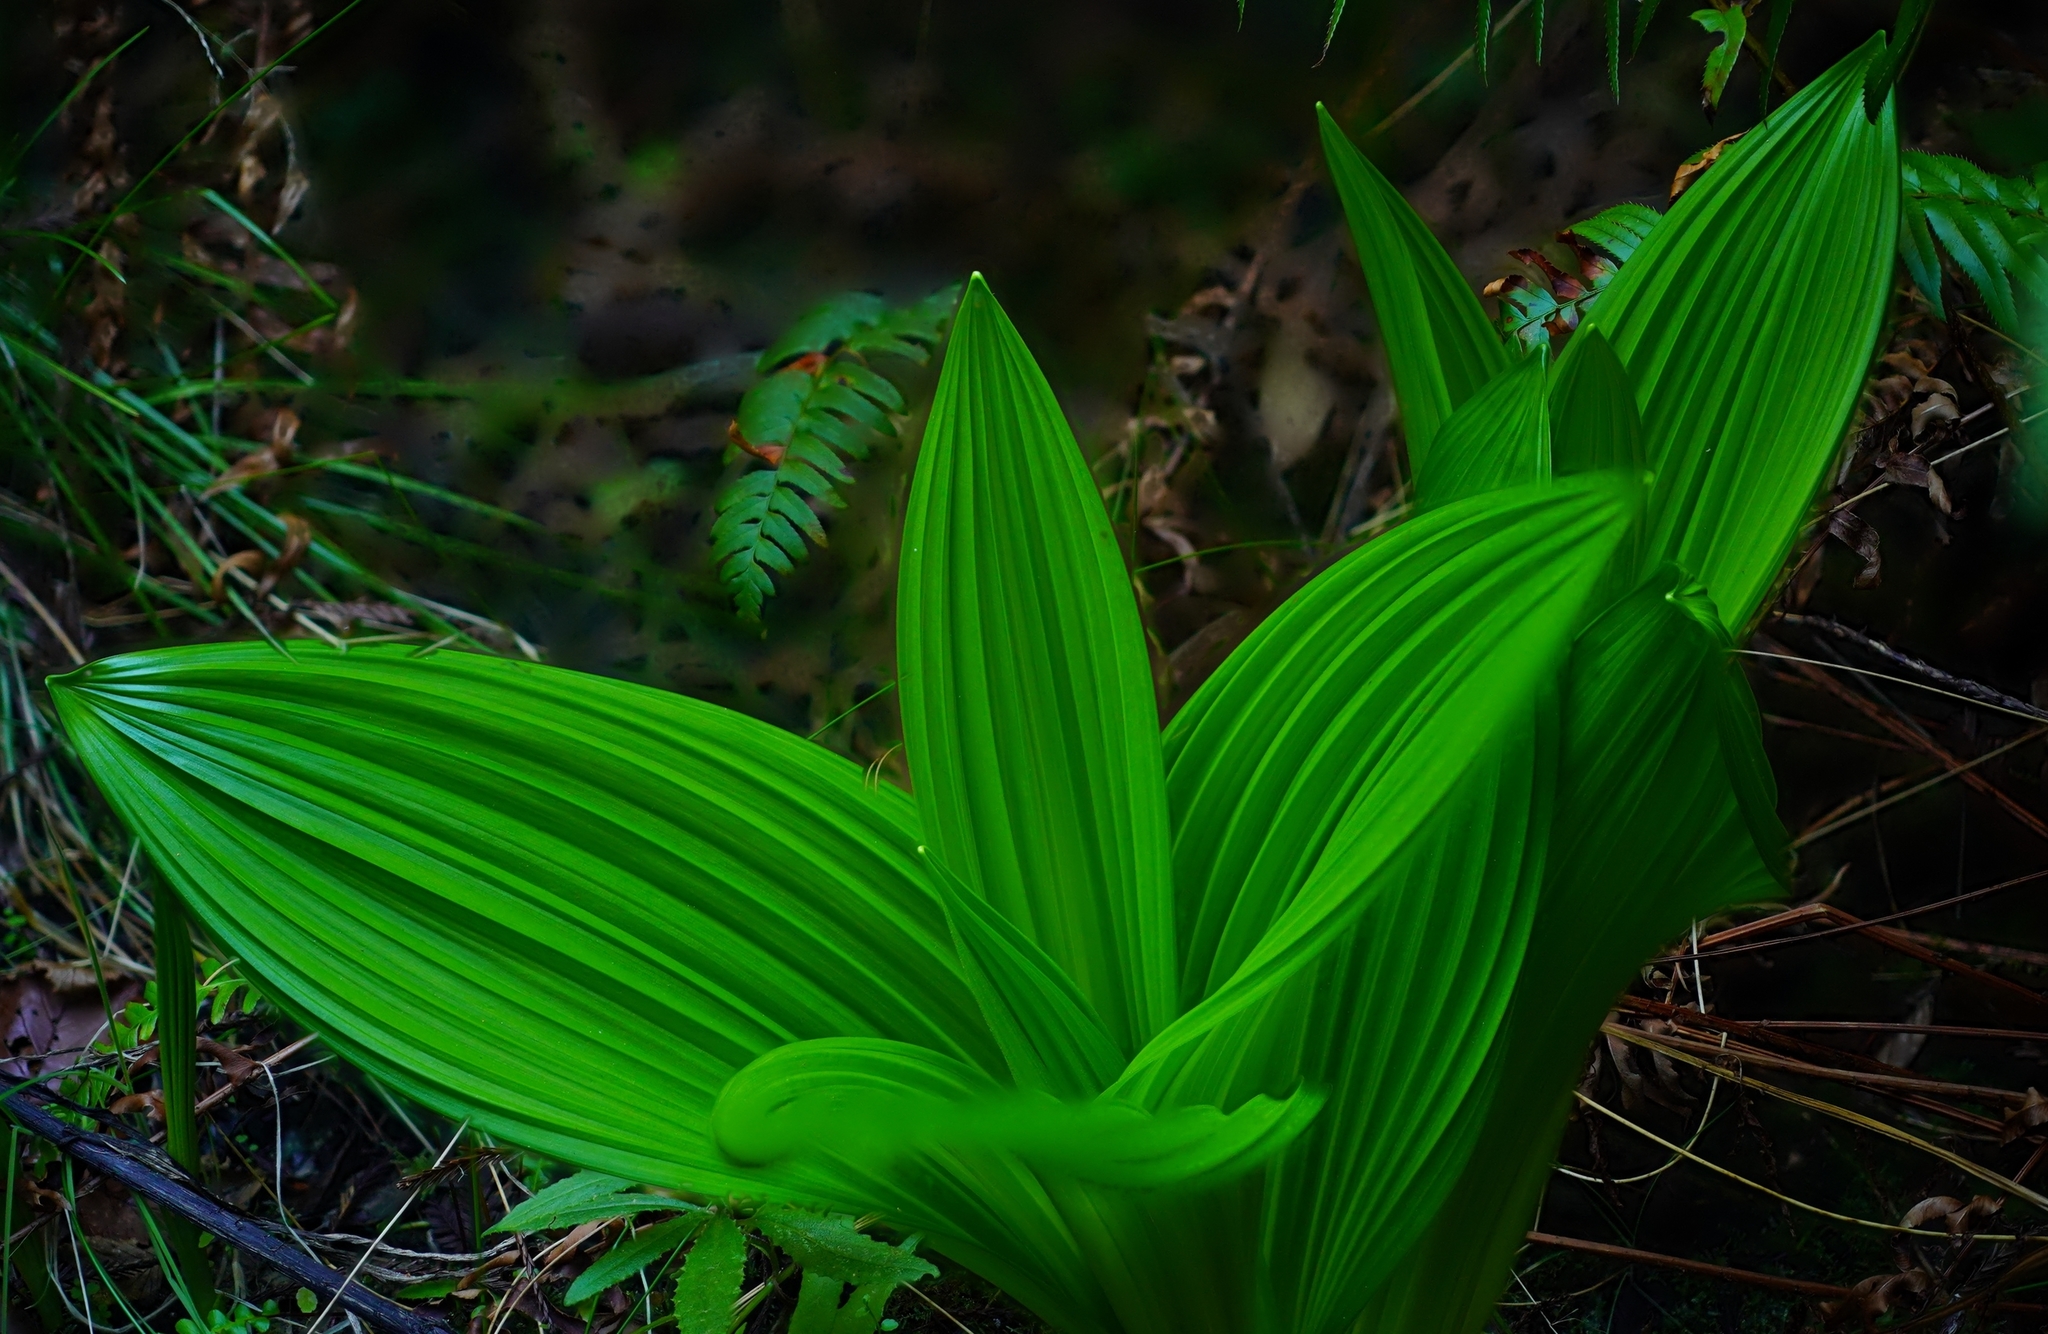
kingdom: Plantae
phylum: Tracheophyta
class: Liliopsida
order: Liliales
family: Melanthiaceae
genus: Veratrum
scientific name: Veratrum fimbriatum
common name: Fringe false hellobore
